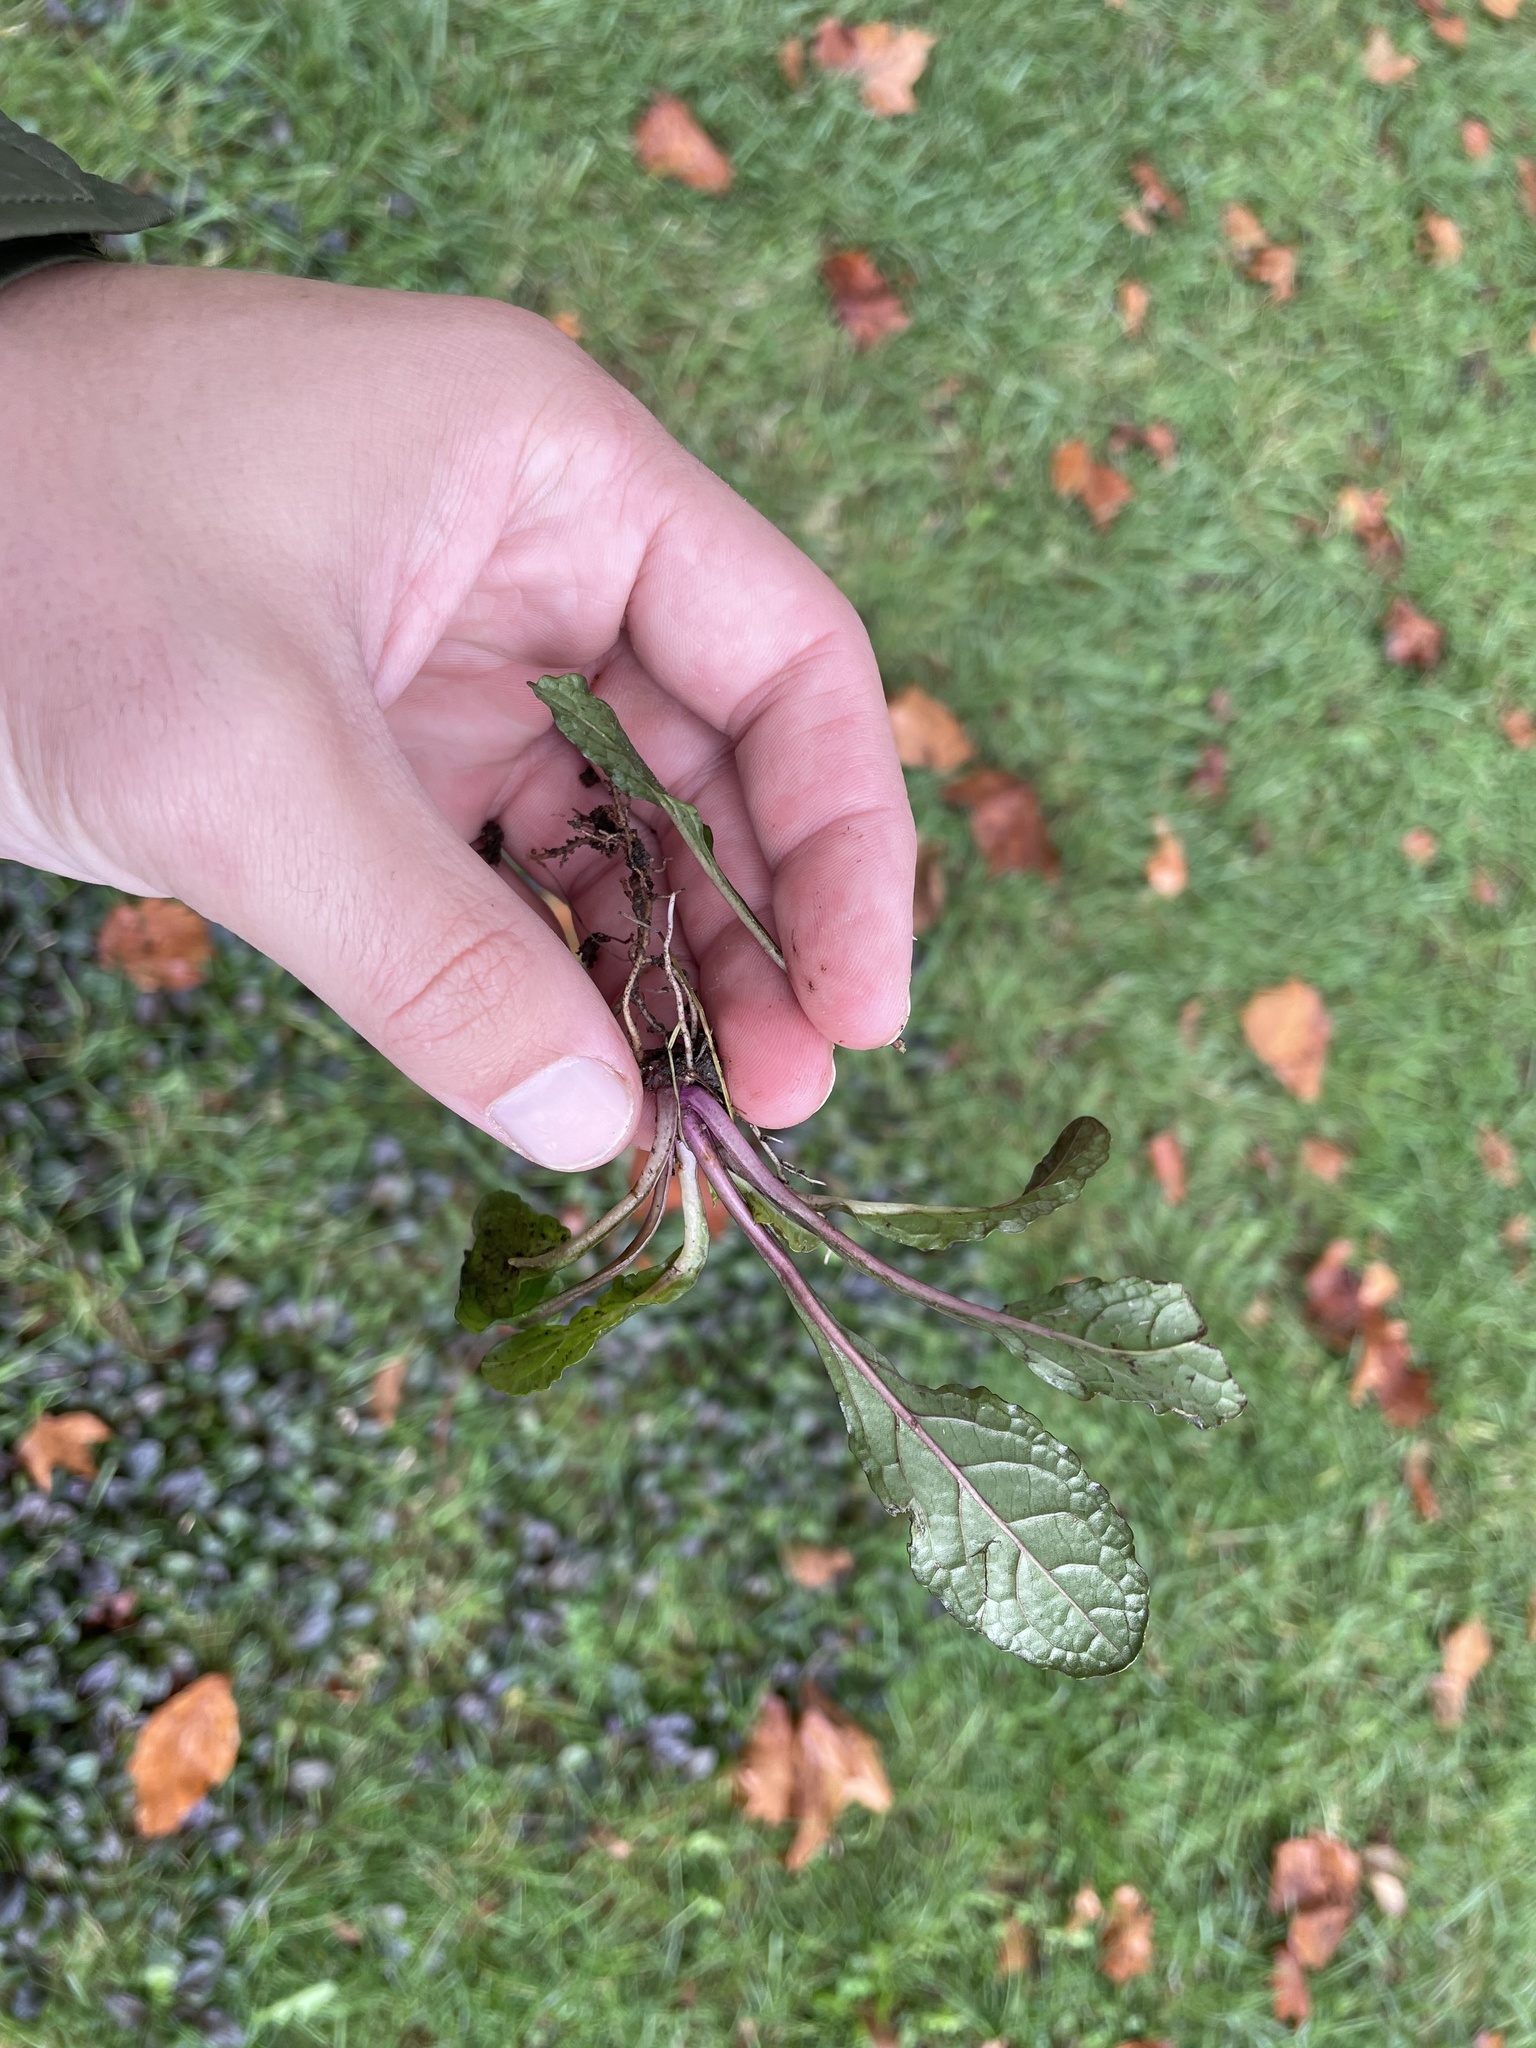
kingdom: Plantae
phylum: Tracheophyta
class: Magnoliopsida
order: Lamiales
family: Lamiaceae
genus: Ajuga
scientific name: Ajuga reptans
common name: Bugle
